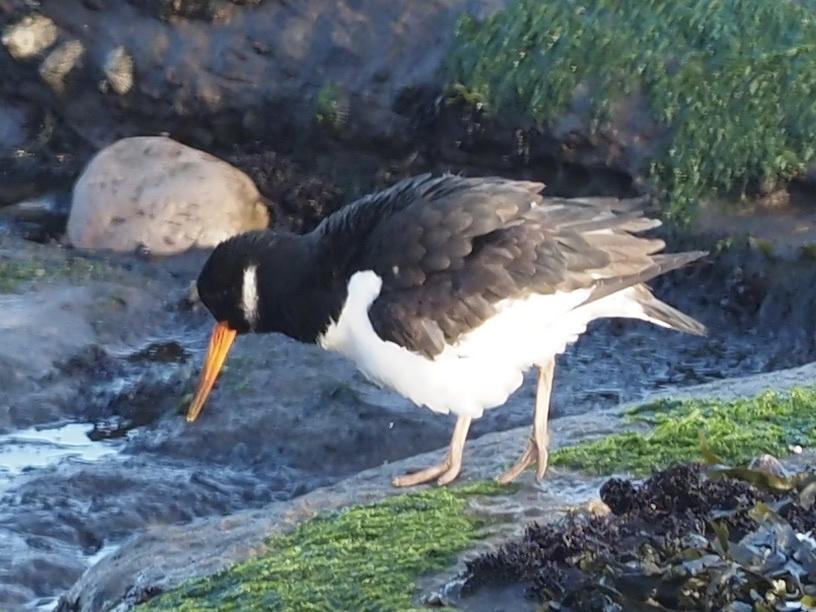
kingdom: Animalia
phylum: Chordata
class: Aves
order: Charadriiformes
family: Haematopodidae
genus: Haematopus
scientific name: Haematopus ostralegus
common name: Eurasian oystercatcher
